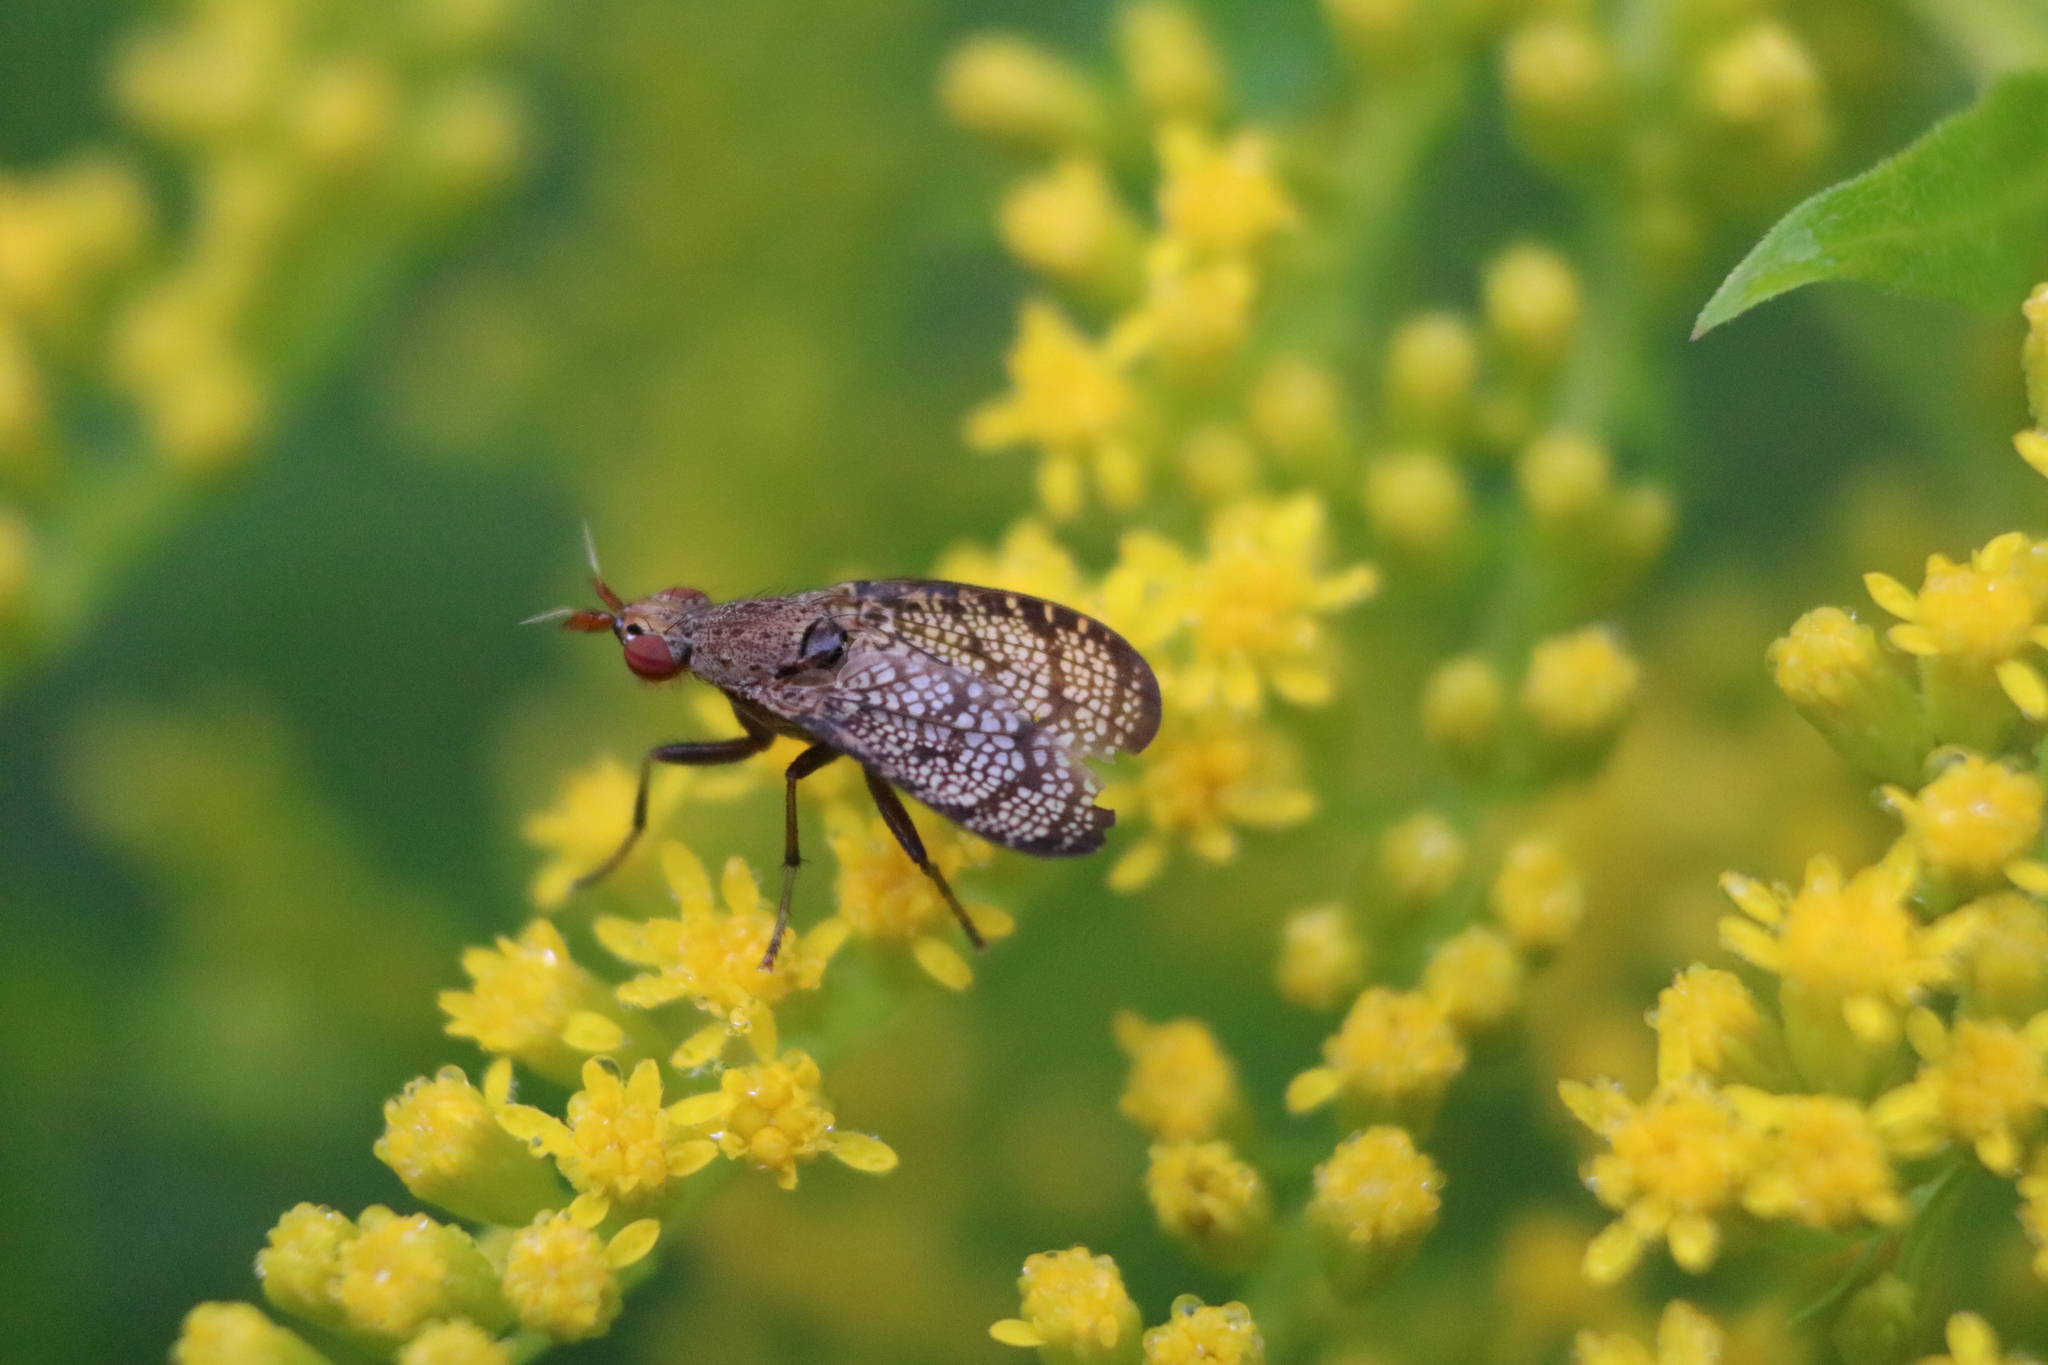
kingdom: Animalia
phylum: Arthropoda
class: Insecta
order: Diptera
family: Sciomyzidae
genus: Euthycera
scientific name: Euthycera flavescens
